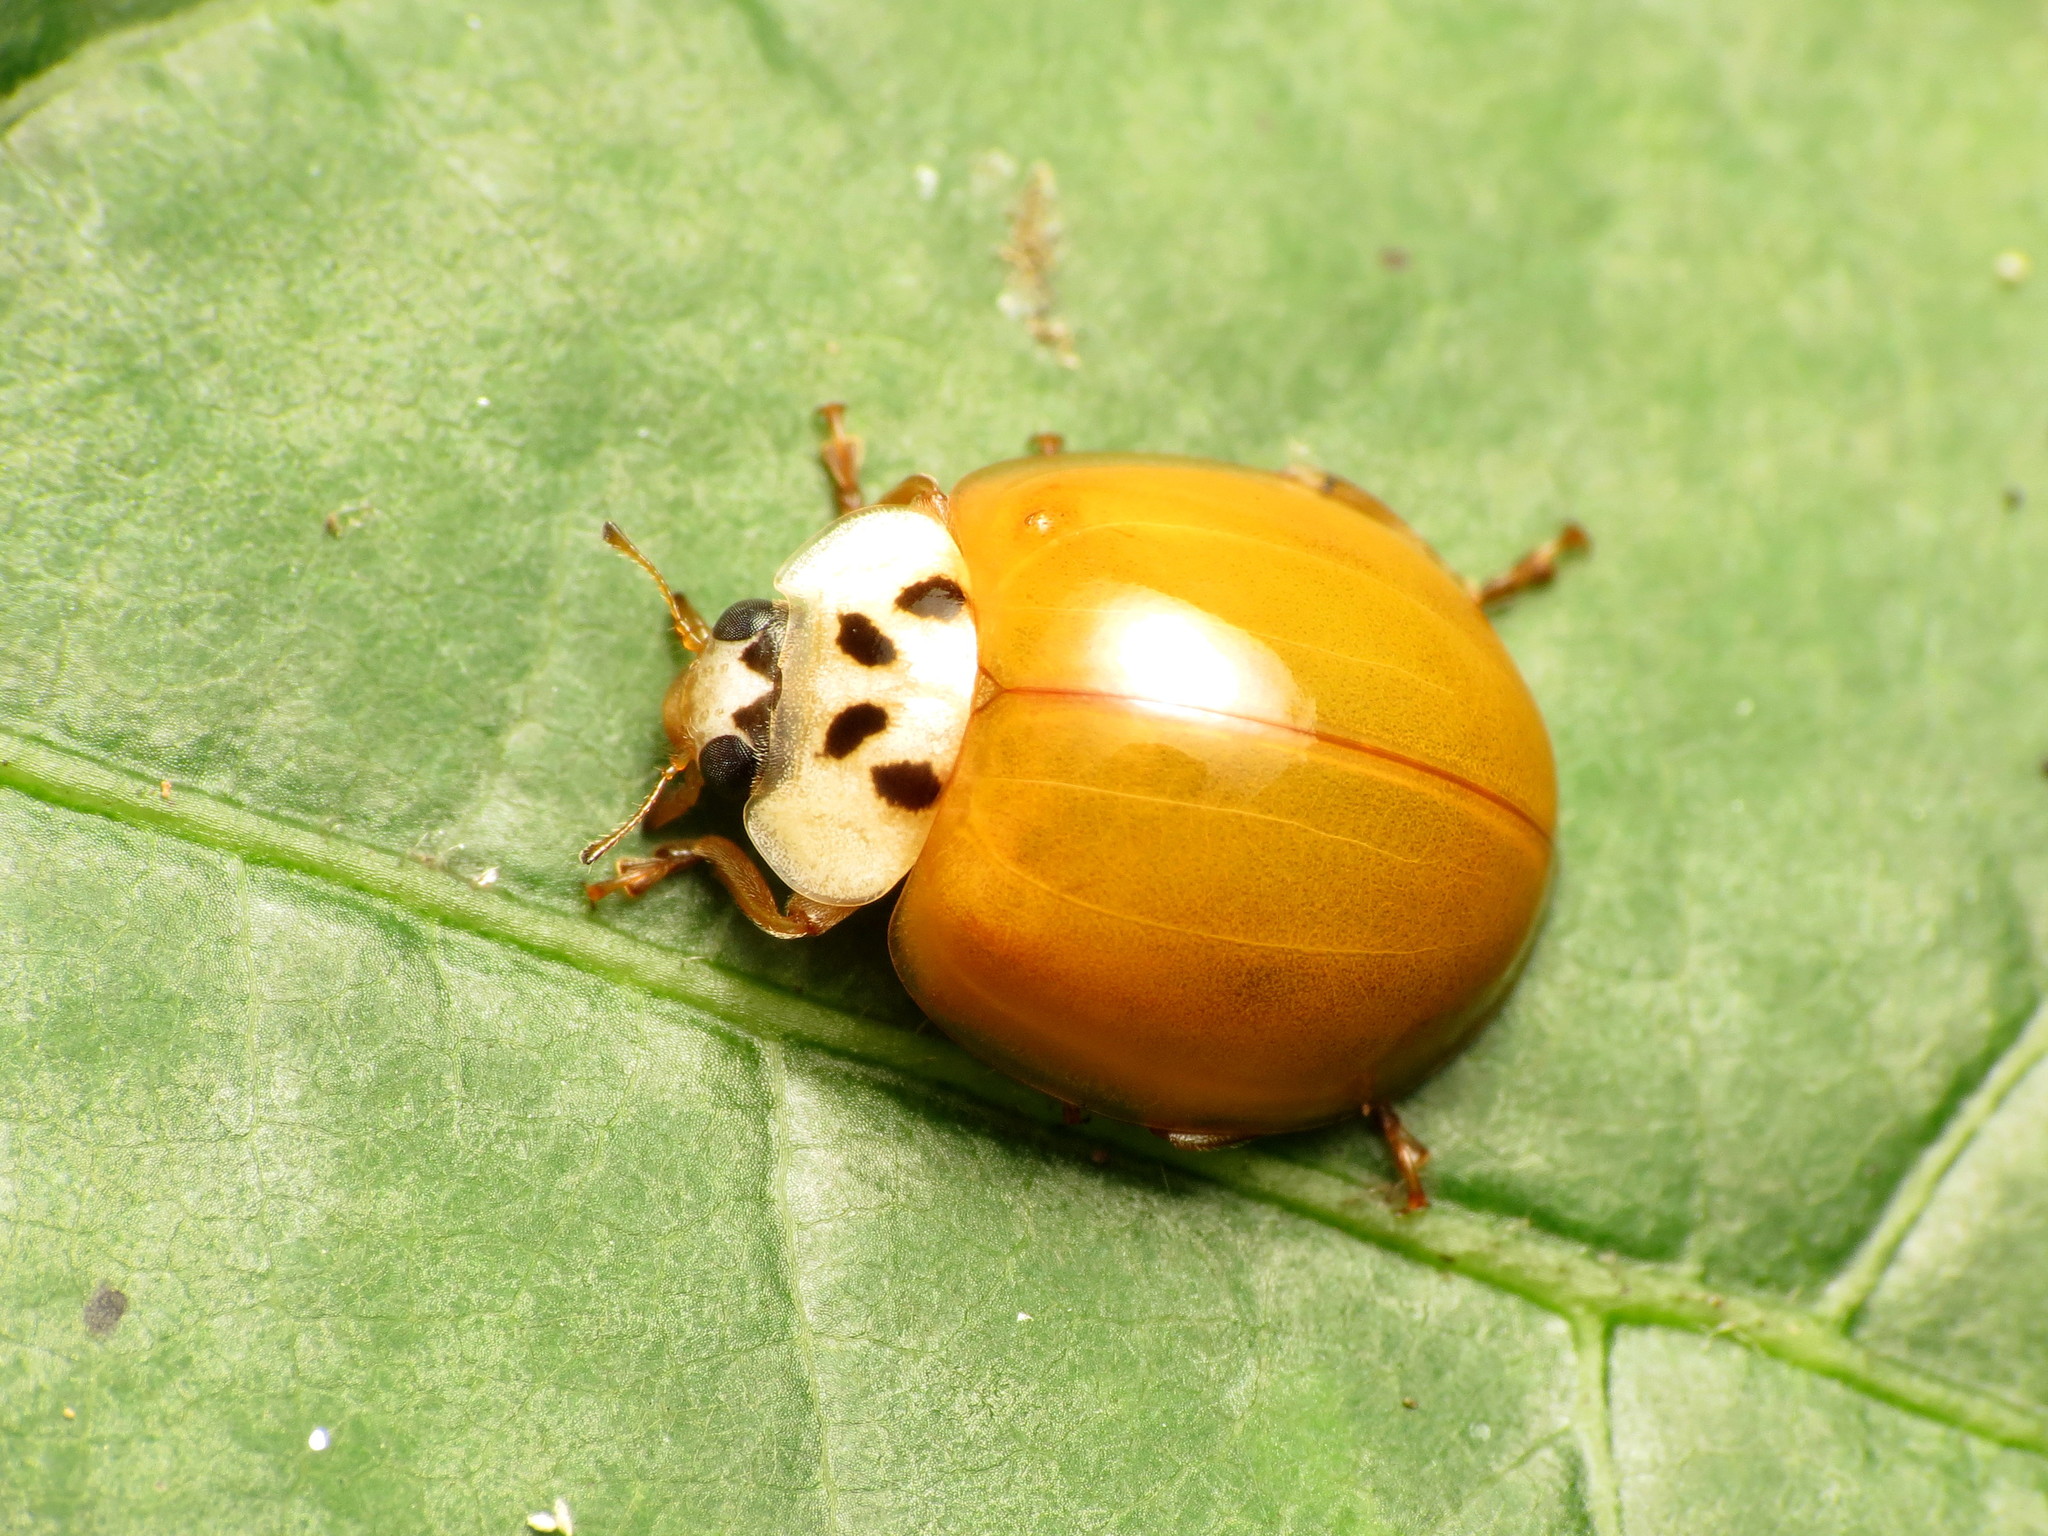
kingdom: Animalia
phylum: Arthropoda
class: Insecta
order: Coleoptera
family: Coccinellidae
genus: Harmonia
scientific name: Harmonia axyridis
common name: Harlequin ladybird
